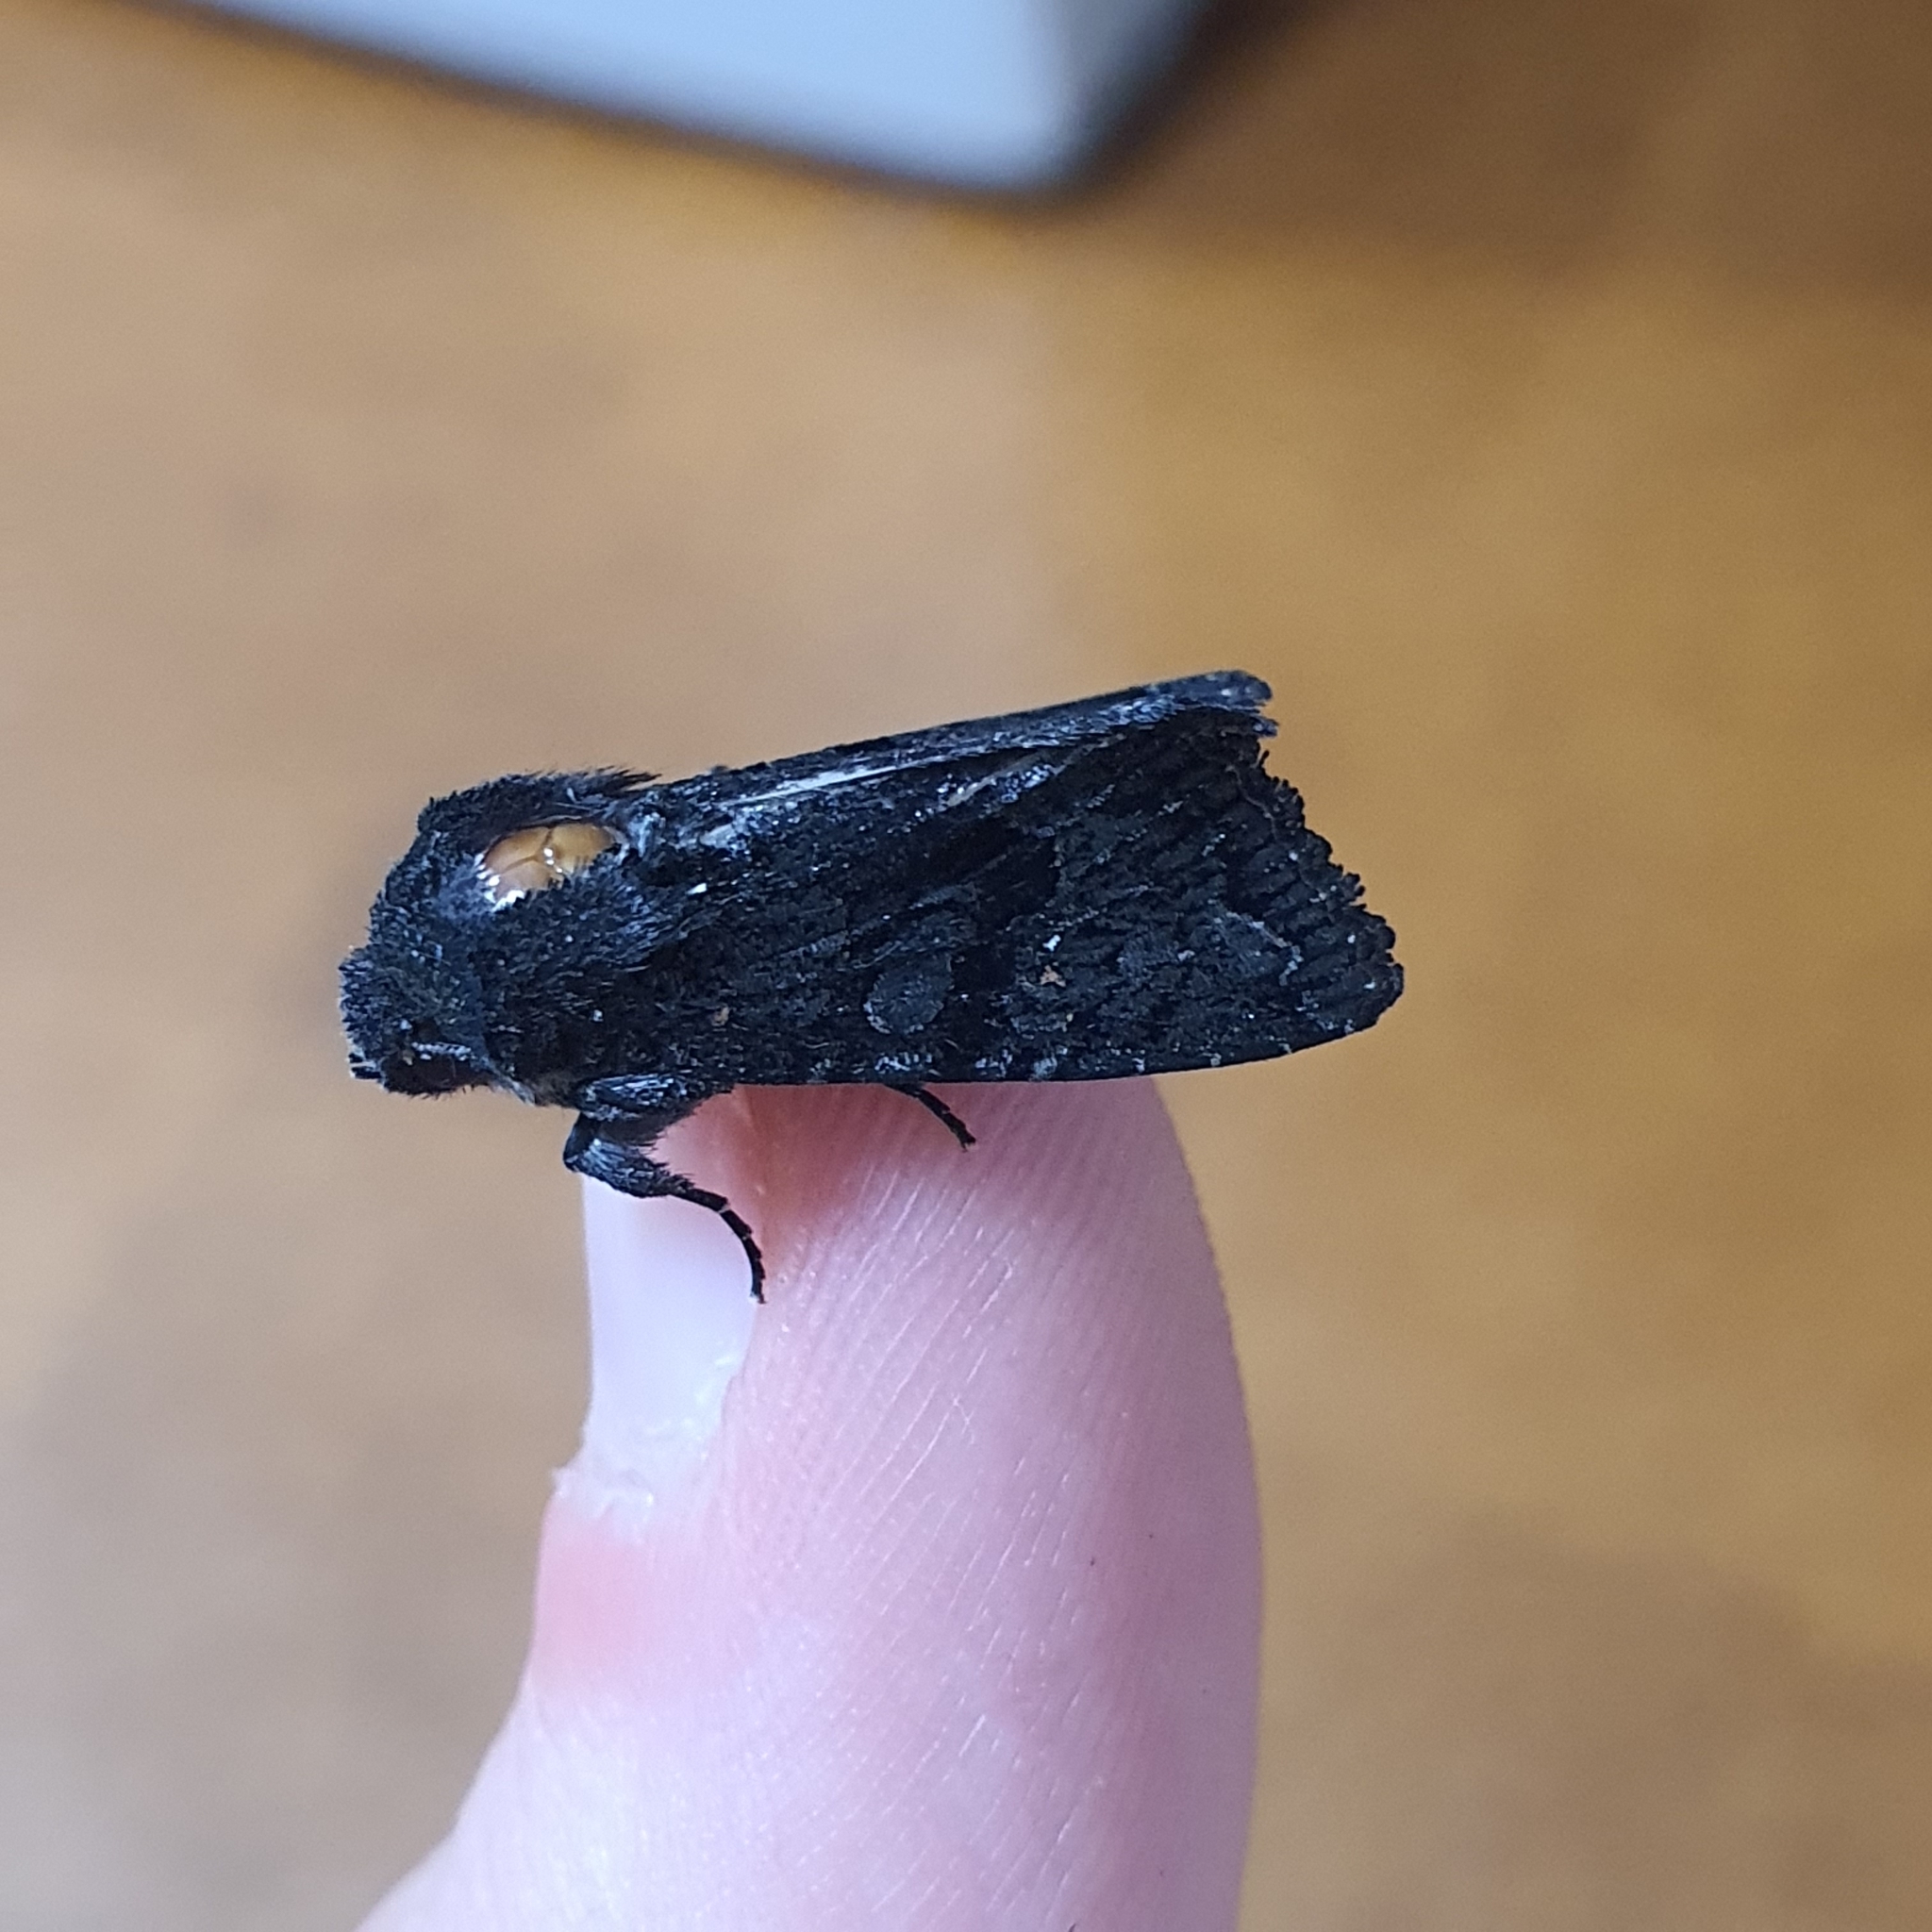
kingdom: Animalia
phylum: Arthropoda
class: Insecta
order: Lepidoptera
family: Noctuidae
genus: Neumichtis
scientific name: Neumichtis nigerrima
